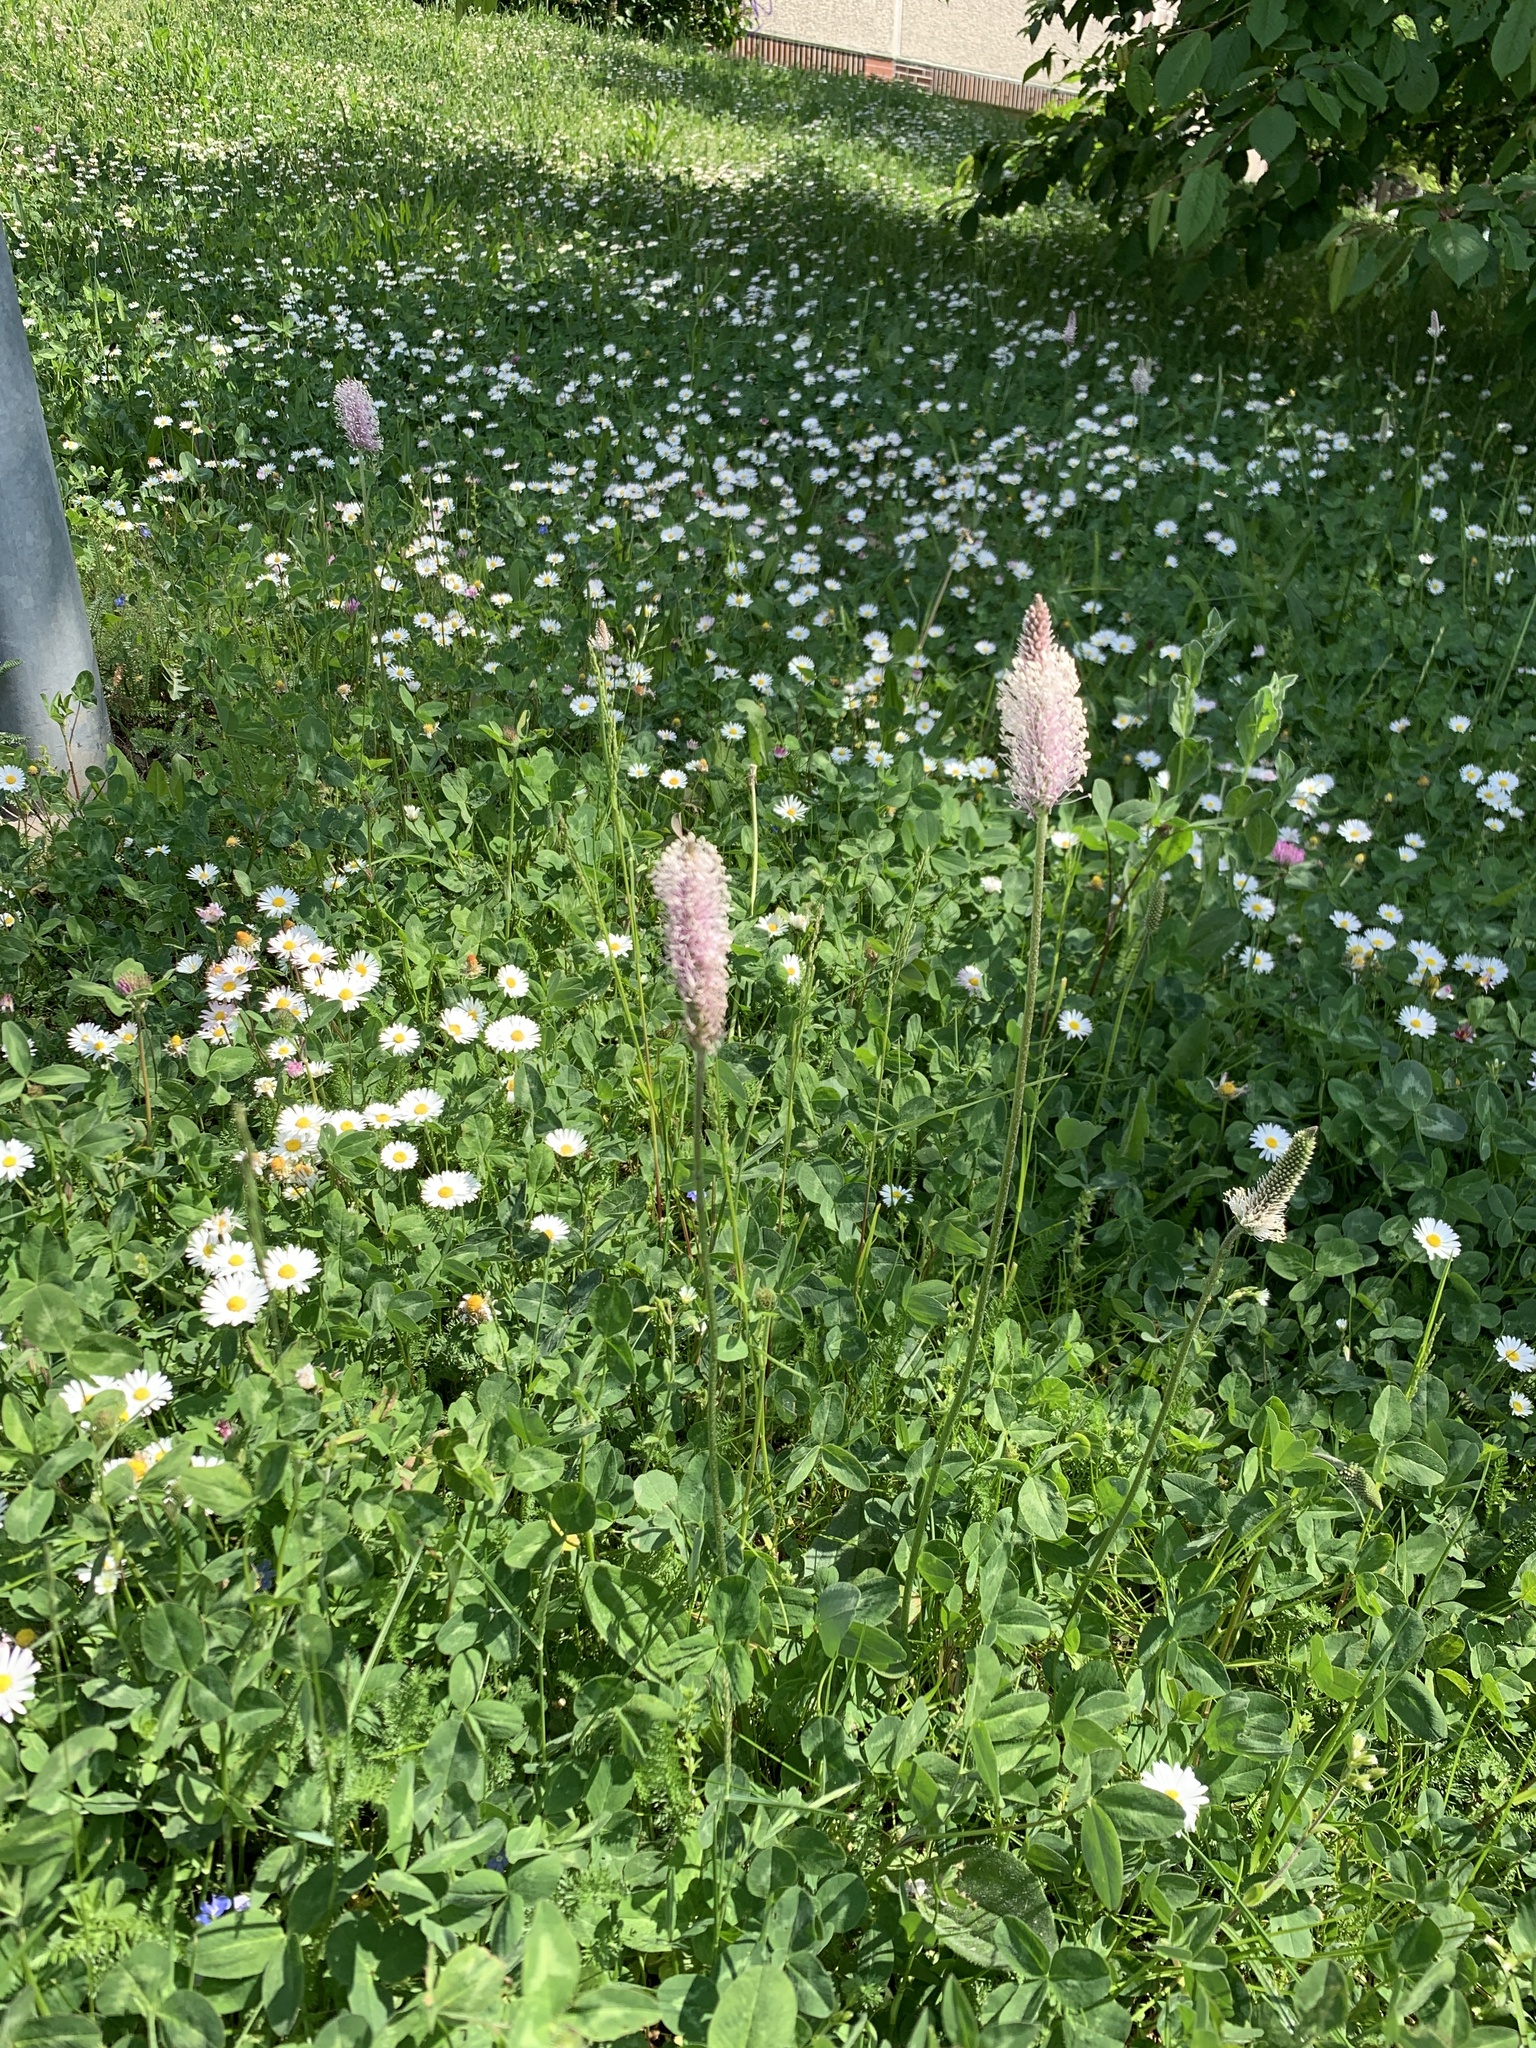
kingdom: Plantae
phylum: Tracheophyta
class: Magnoliopsida
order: Lamiales
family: Plantaginaceae
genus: Plantago
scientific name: Plantago media
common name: Hoary plantain
